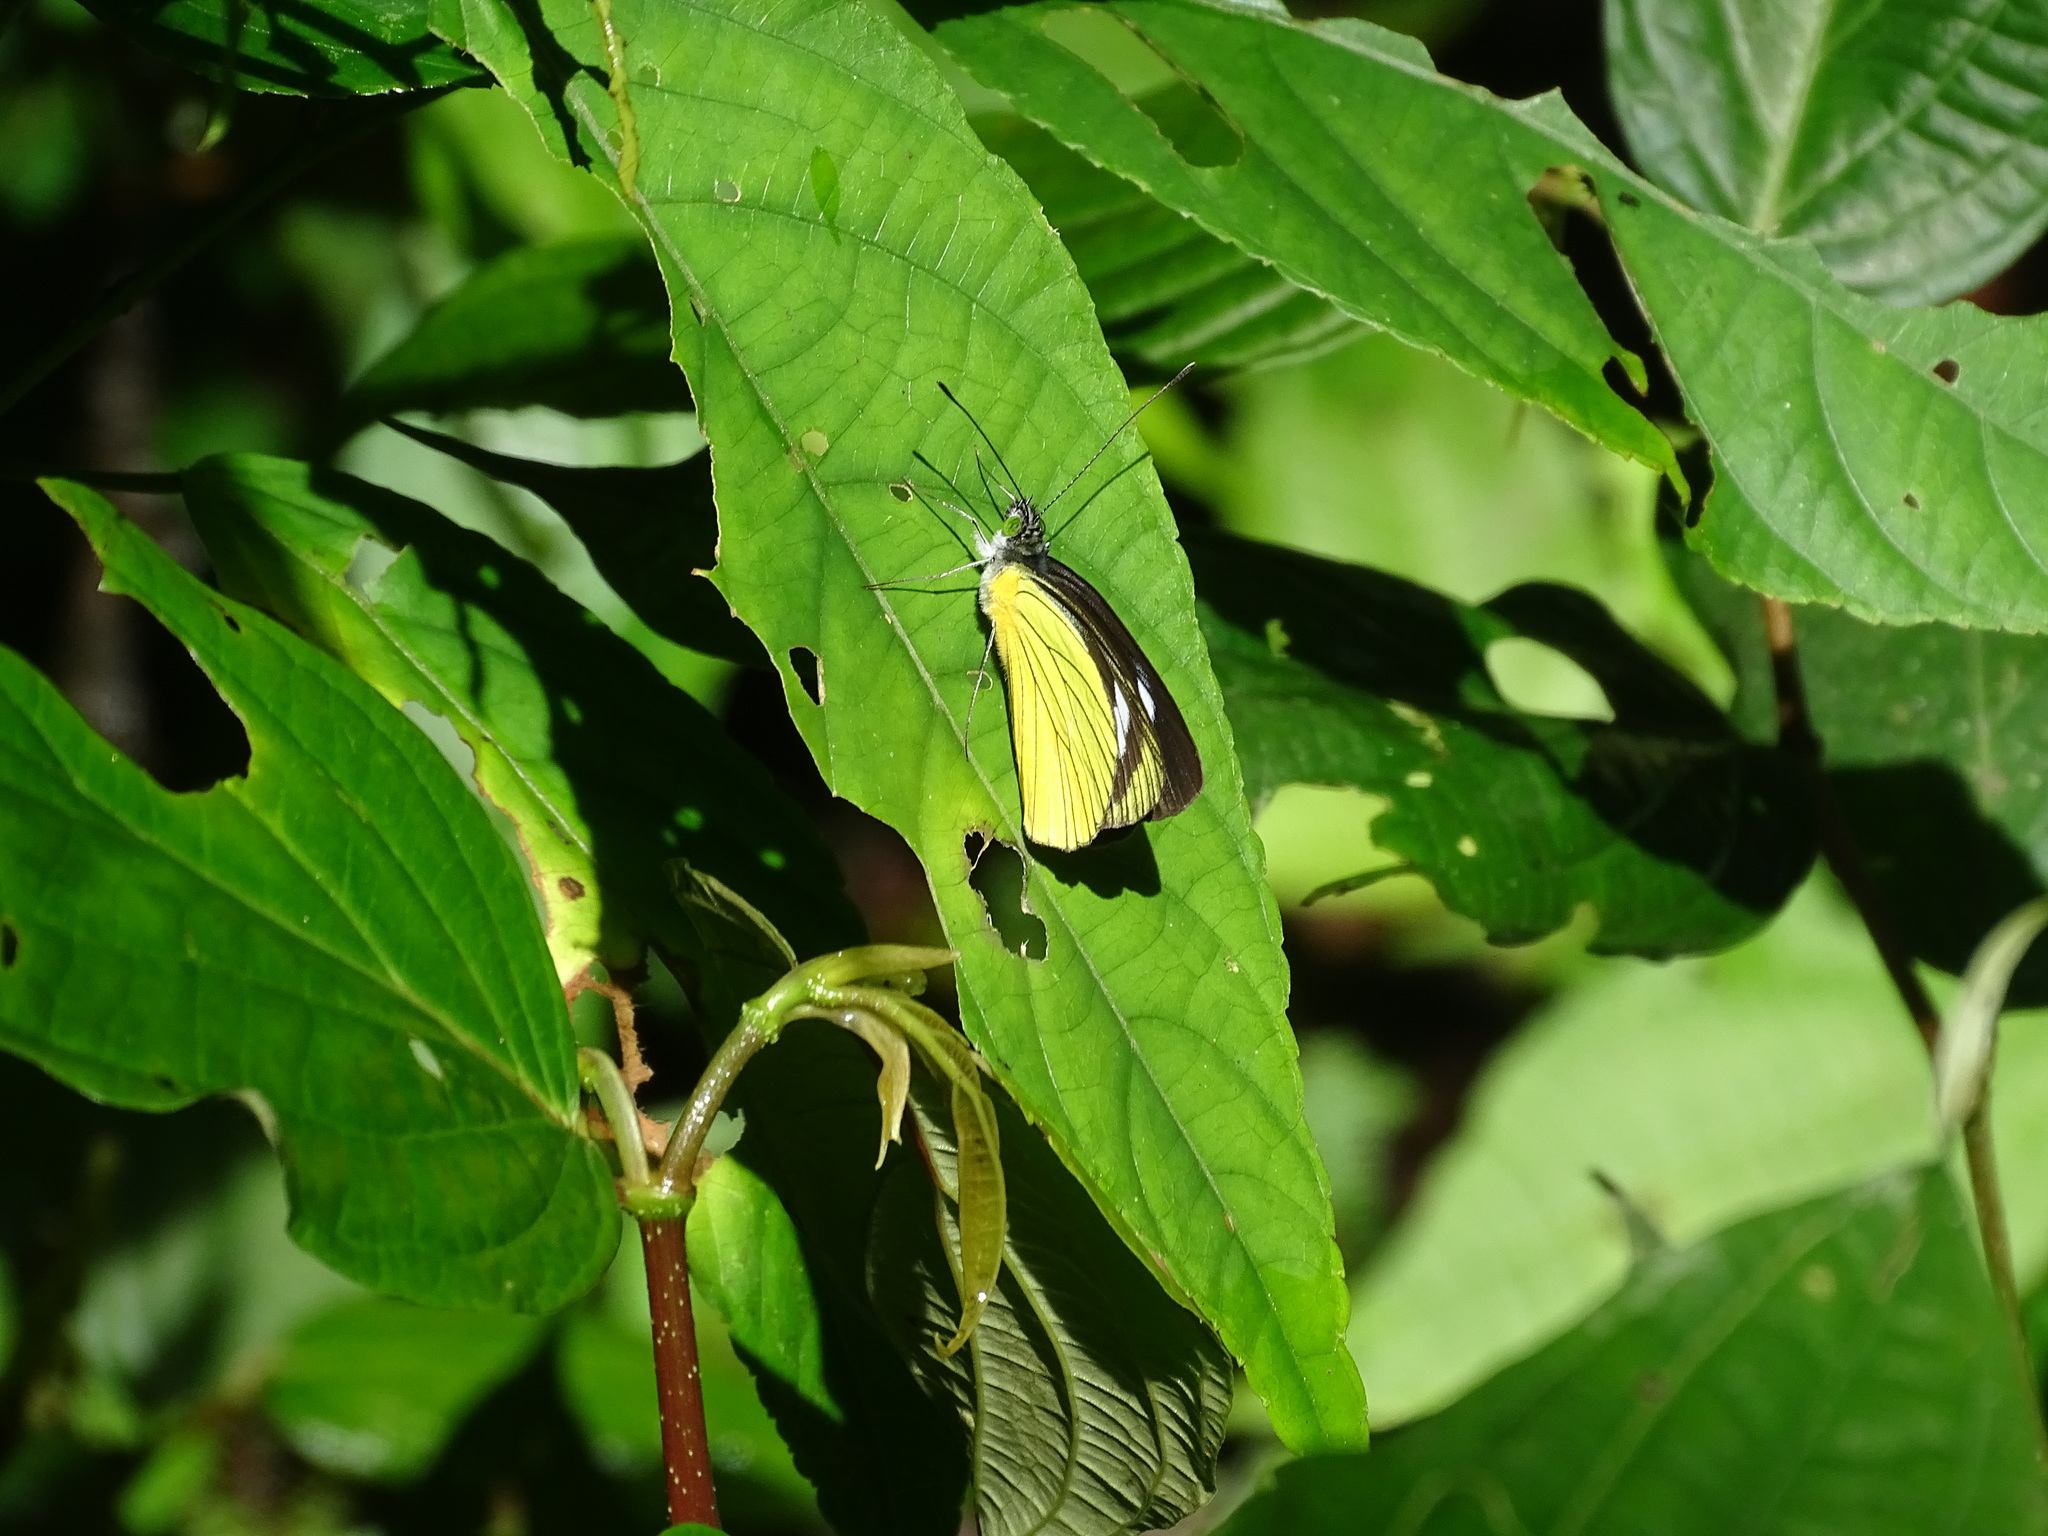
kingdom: Animalia
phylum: Arthropoda
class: Insecta
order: Lepidoptera
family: Pieridae
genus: Leptophobia
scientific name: Leptophobia caesia
